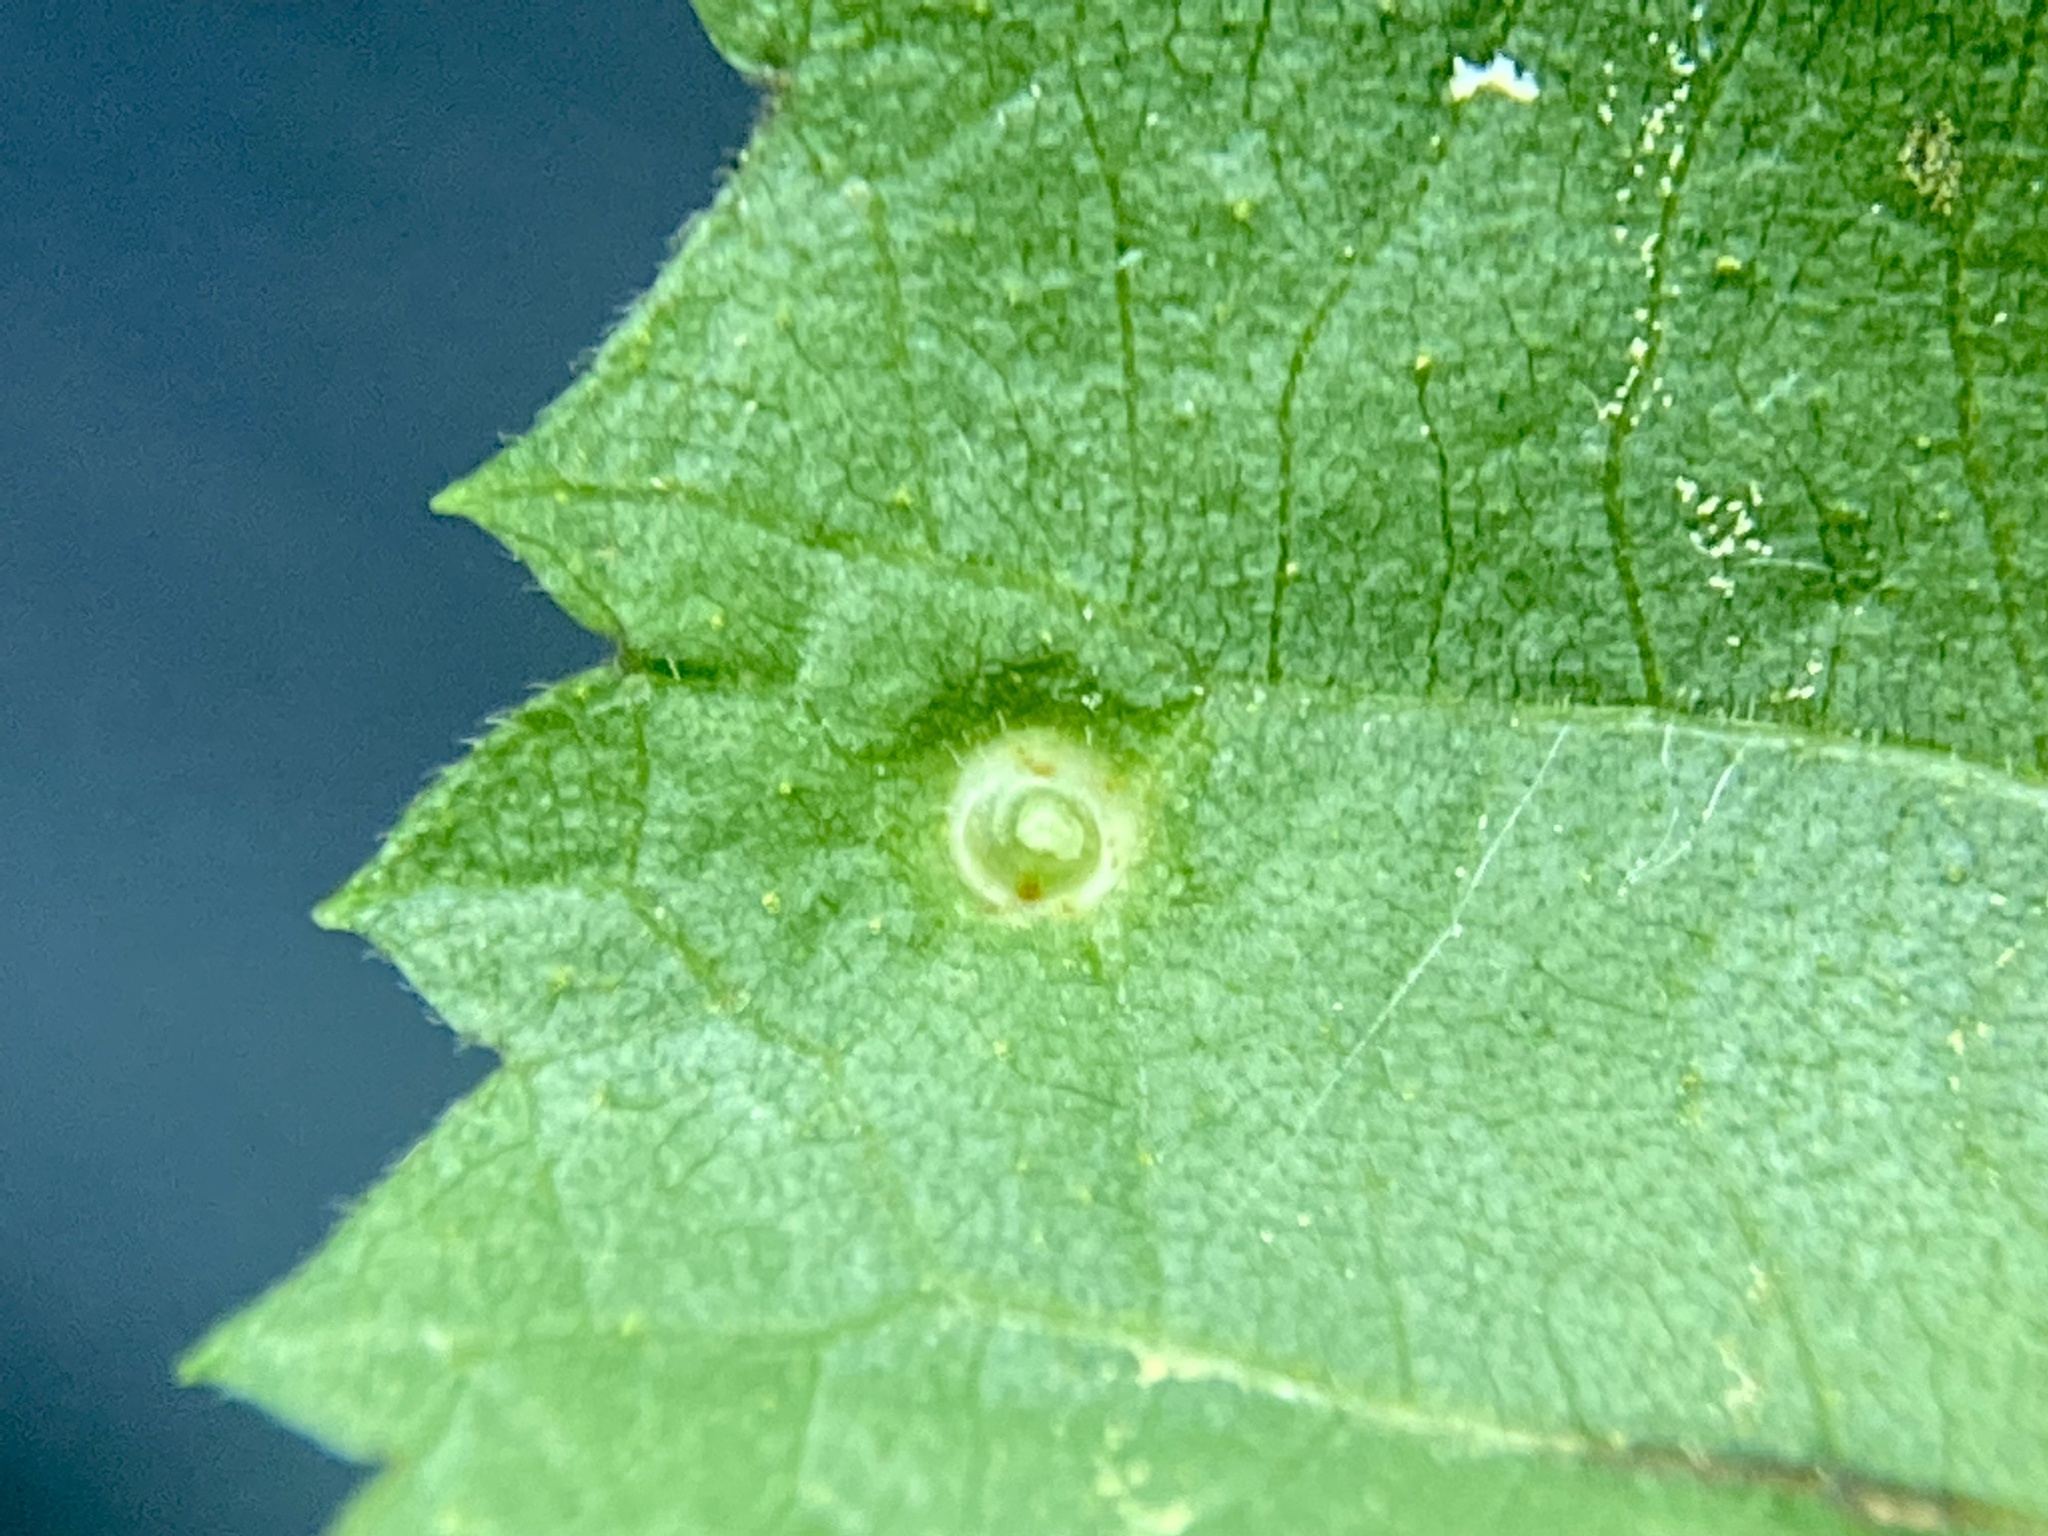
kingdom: Animalia
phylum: Arthropoda
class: Insecta
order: Diptera
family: Cecidomyiidae
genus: Caryomyia
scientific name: Caryomyia tubicola
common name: Hickory bullet gall midge
